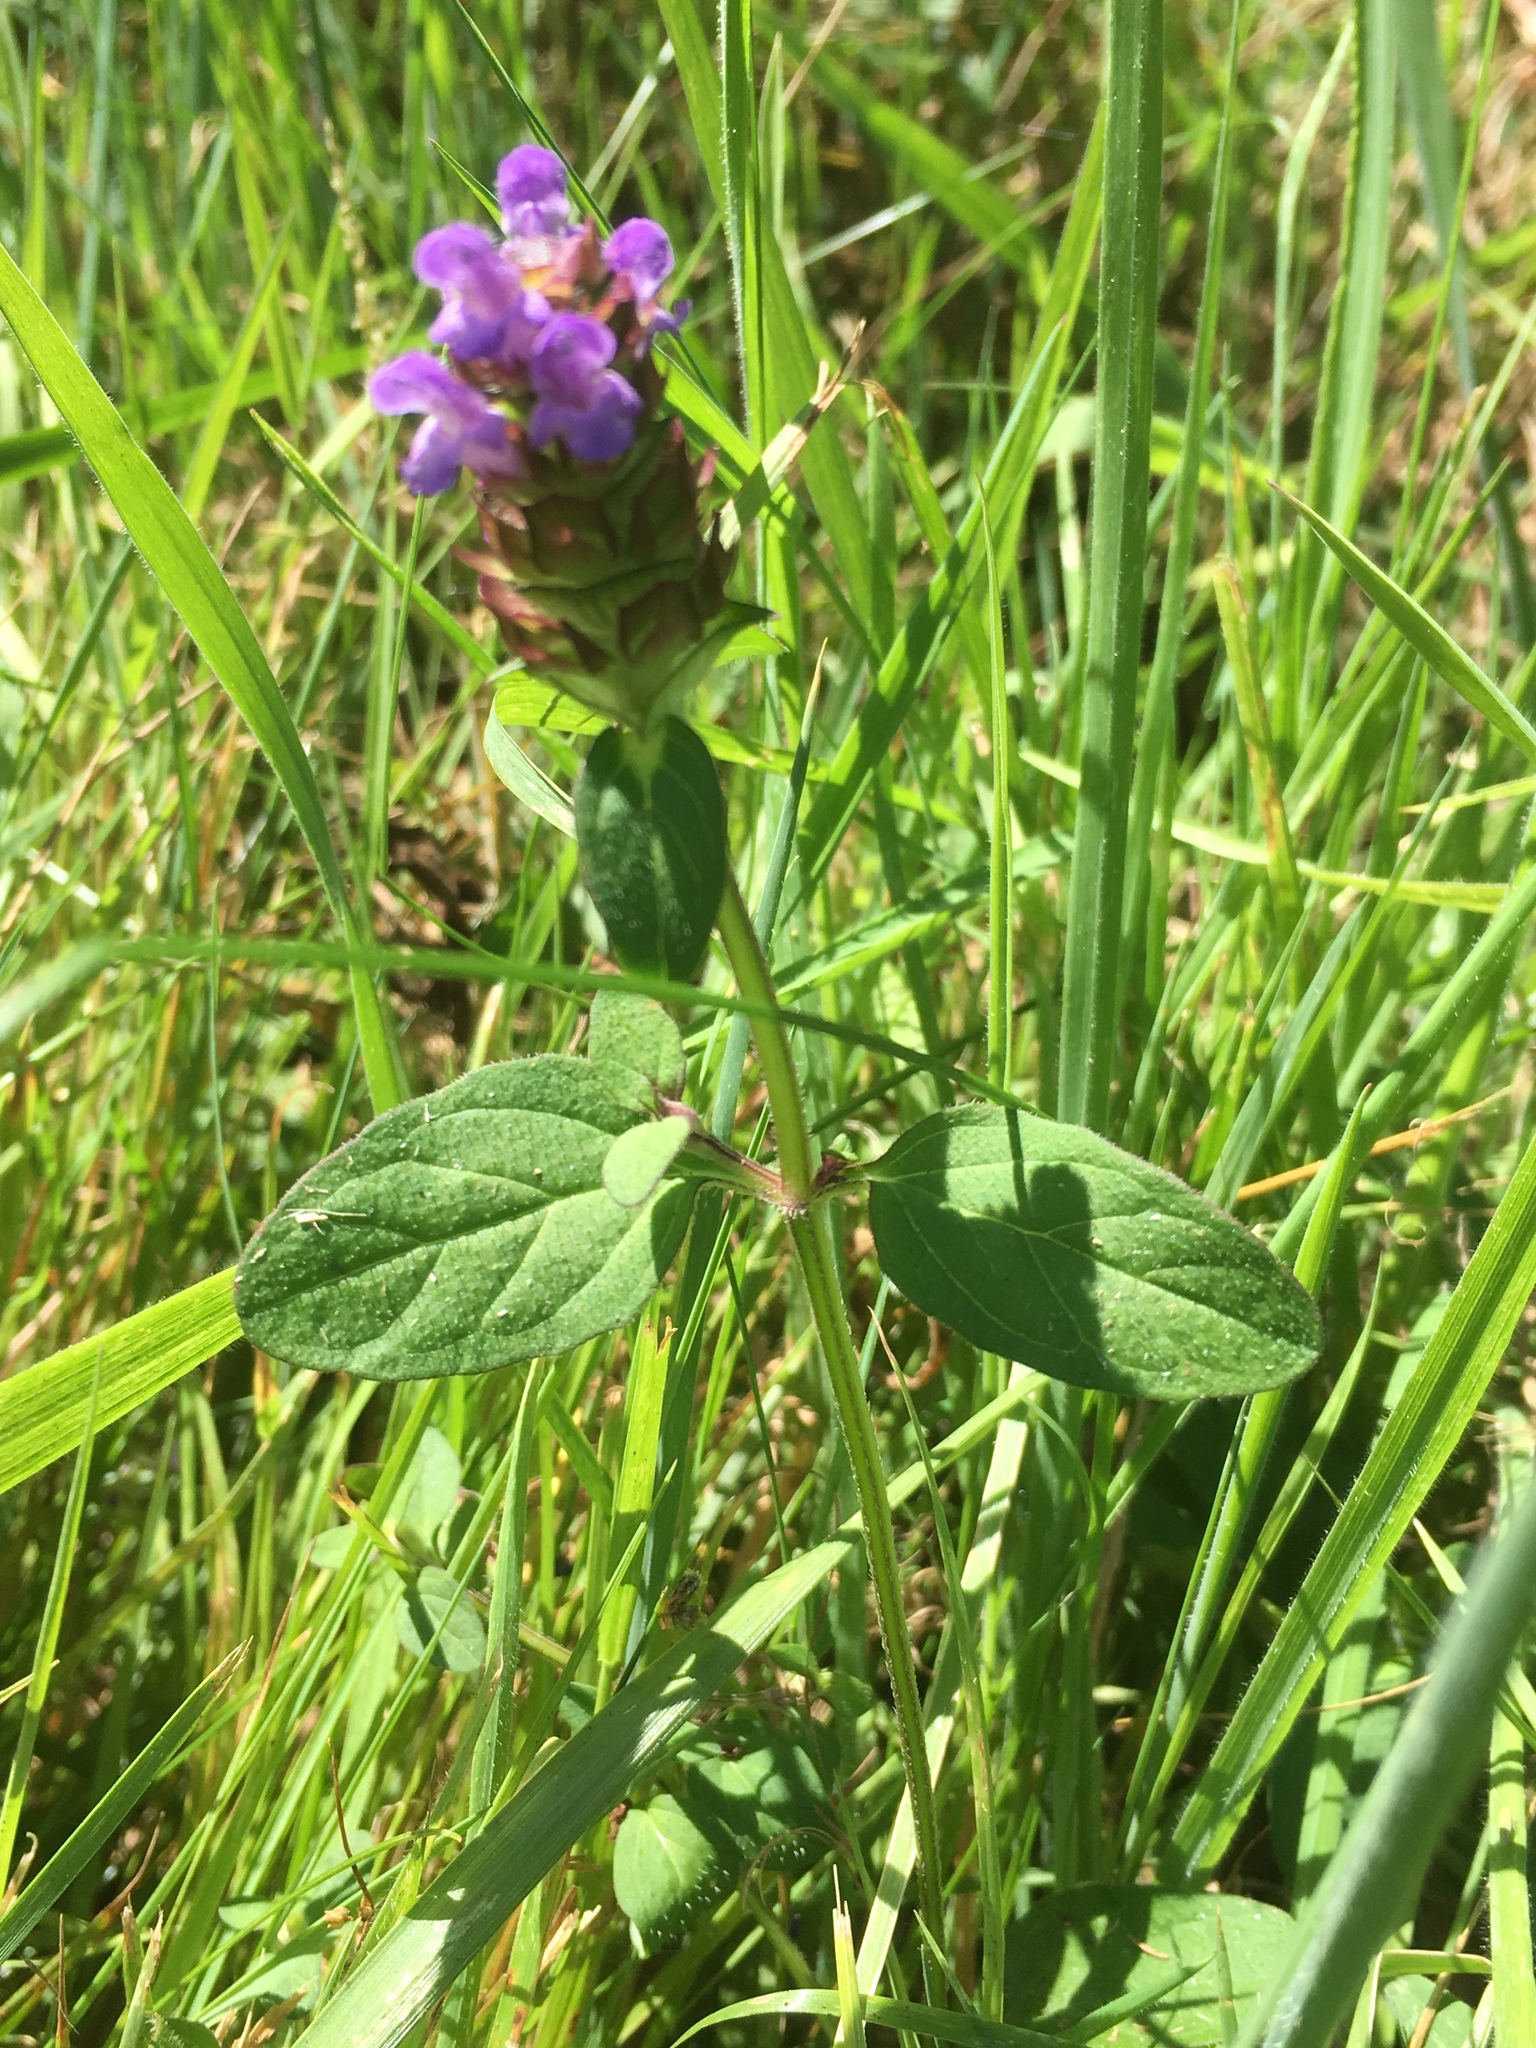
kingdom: Plantae
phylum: Tracheophyta
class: Magnoliopsida
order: Lamiales
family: Lamiaceae
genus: Prunella
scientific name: Prunella vulgaris
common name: Heal-all
